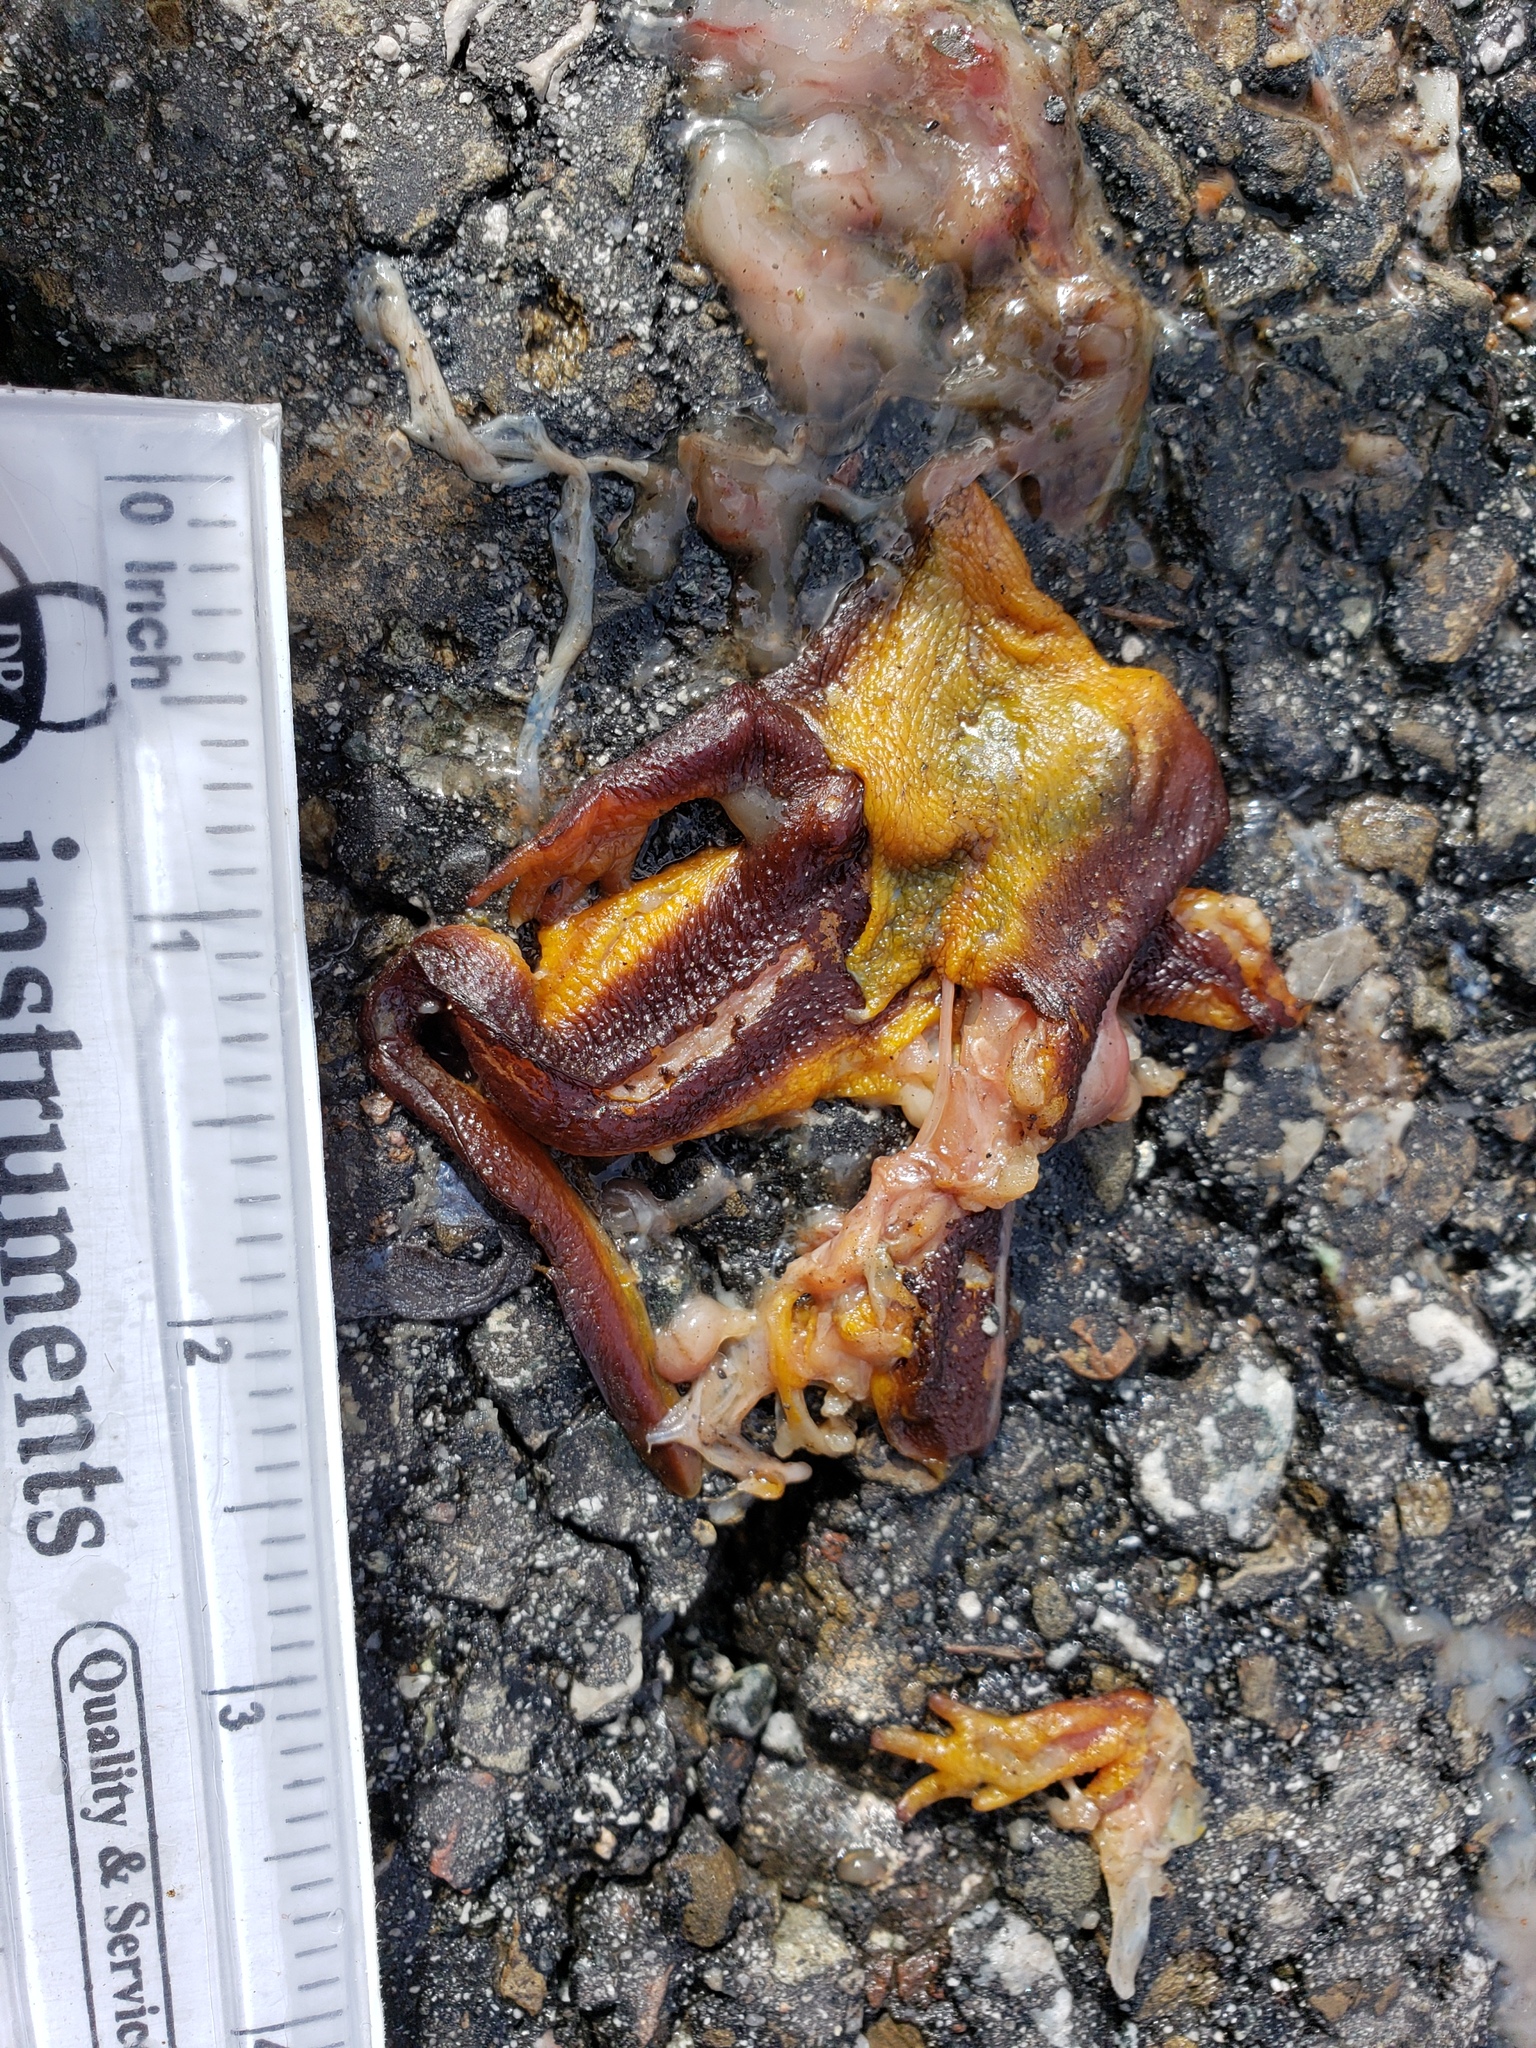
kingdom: Animalia
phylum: Chordata
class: Amphibia
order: Caudata
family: Salamandridae
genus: Taricha
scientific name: Taricha
